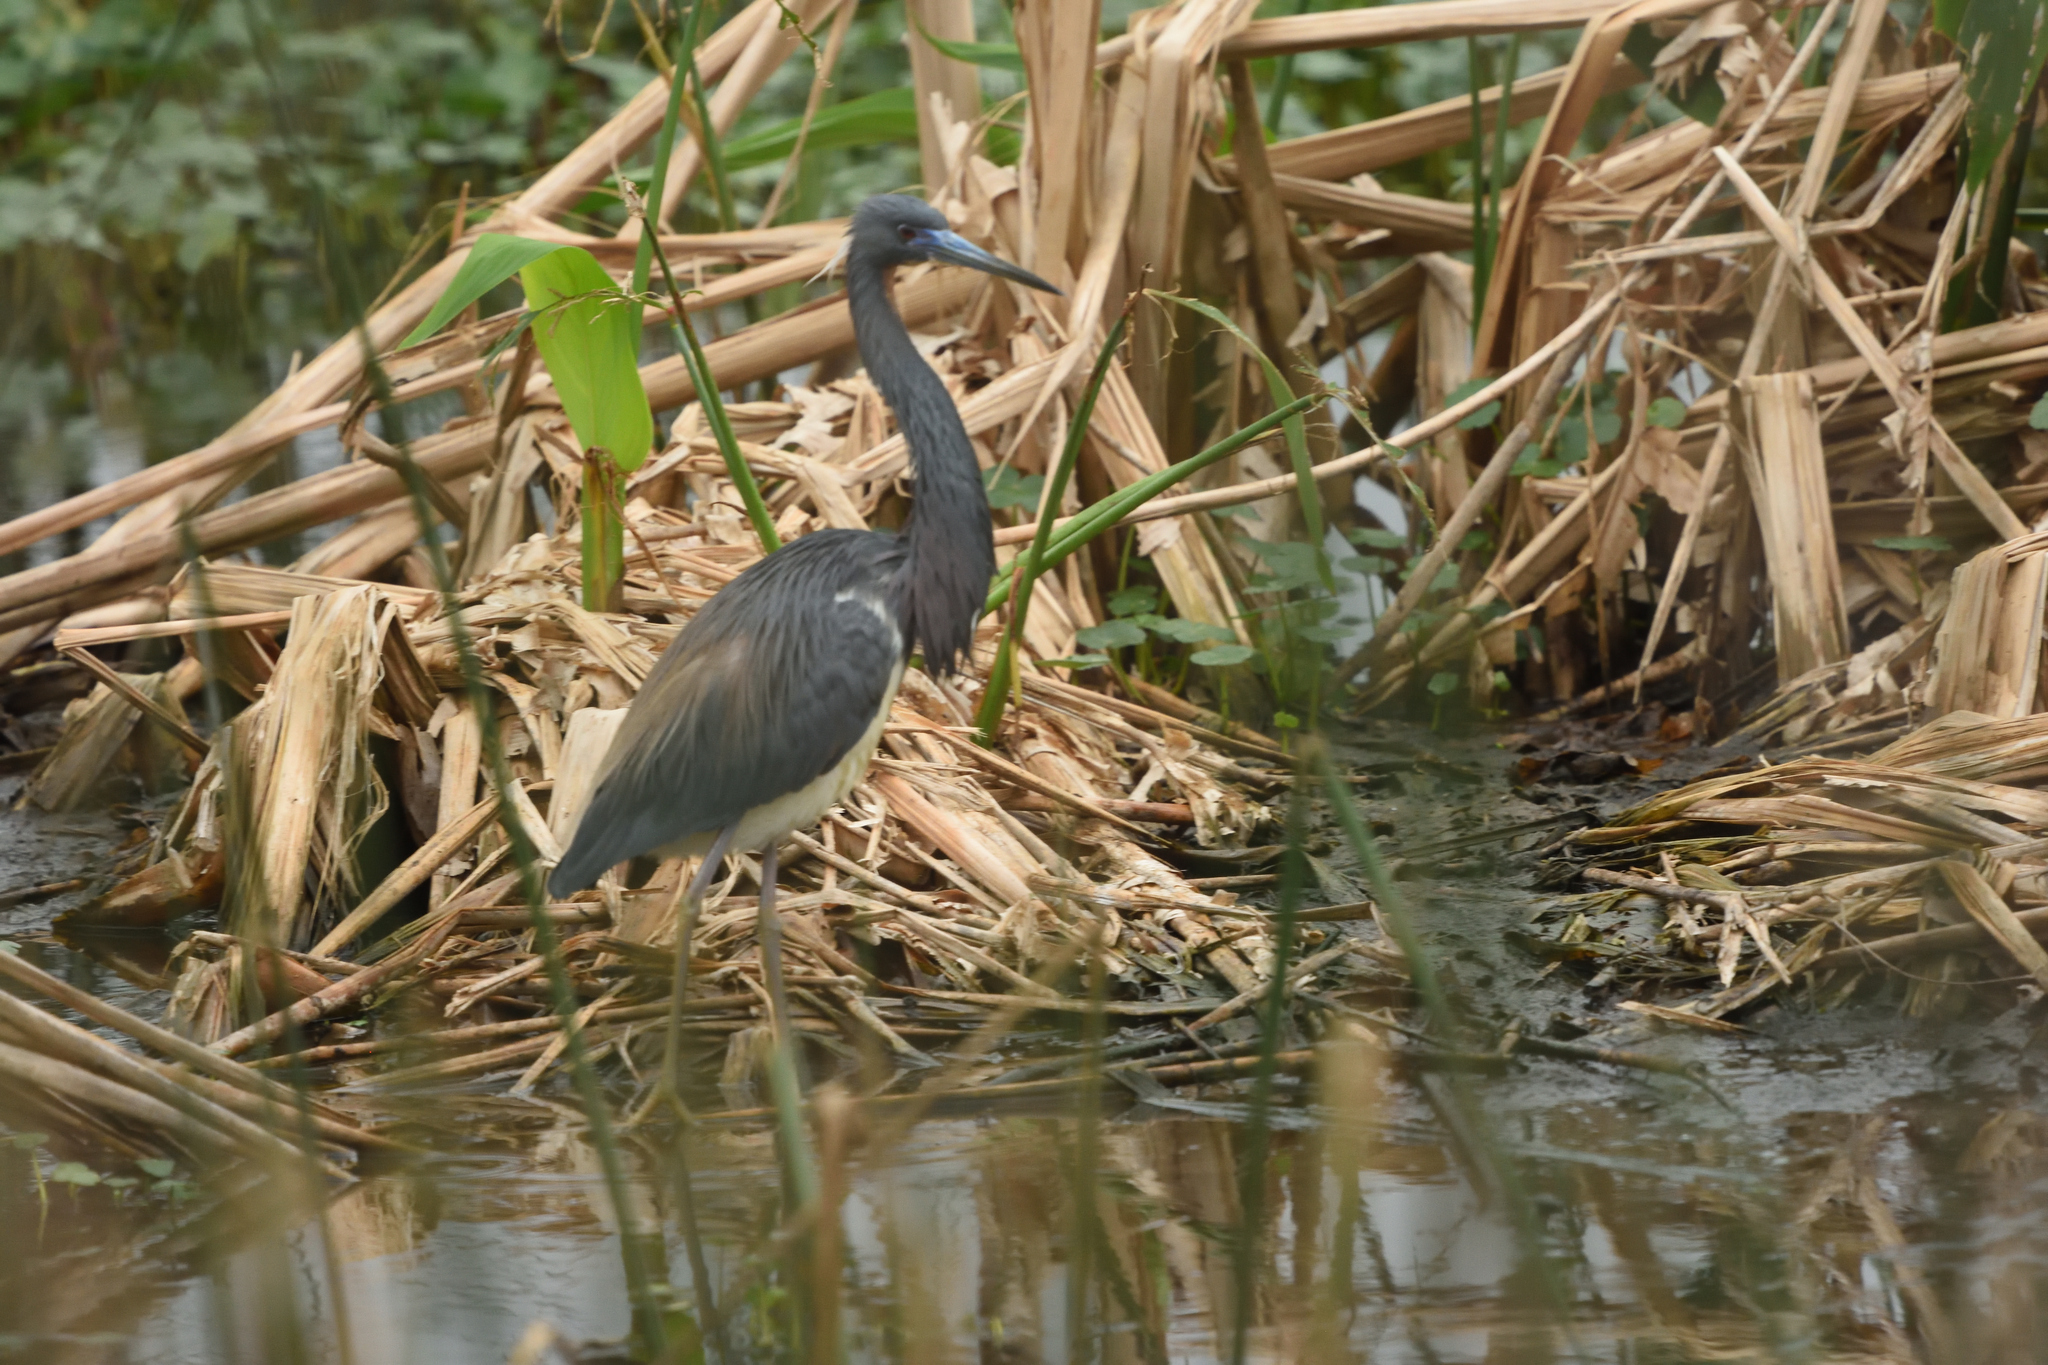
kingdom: Animalia
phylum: Chordata
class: Aves
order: Pelecaniformes
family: Ardeidae
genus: Egretta
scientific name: Egretta tricolor
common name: Tricolored heron
